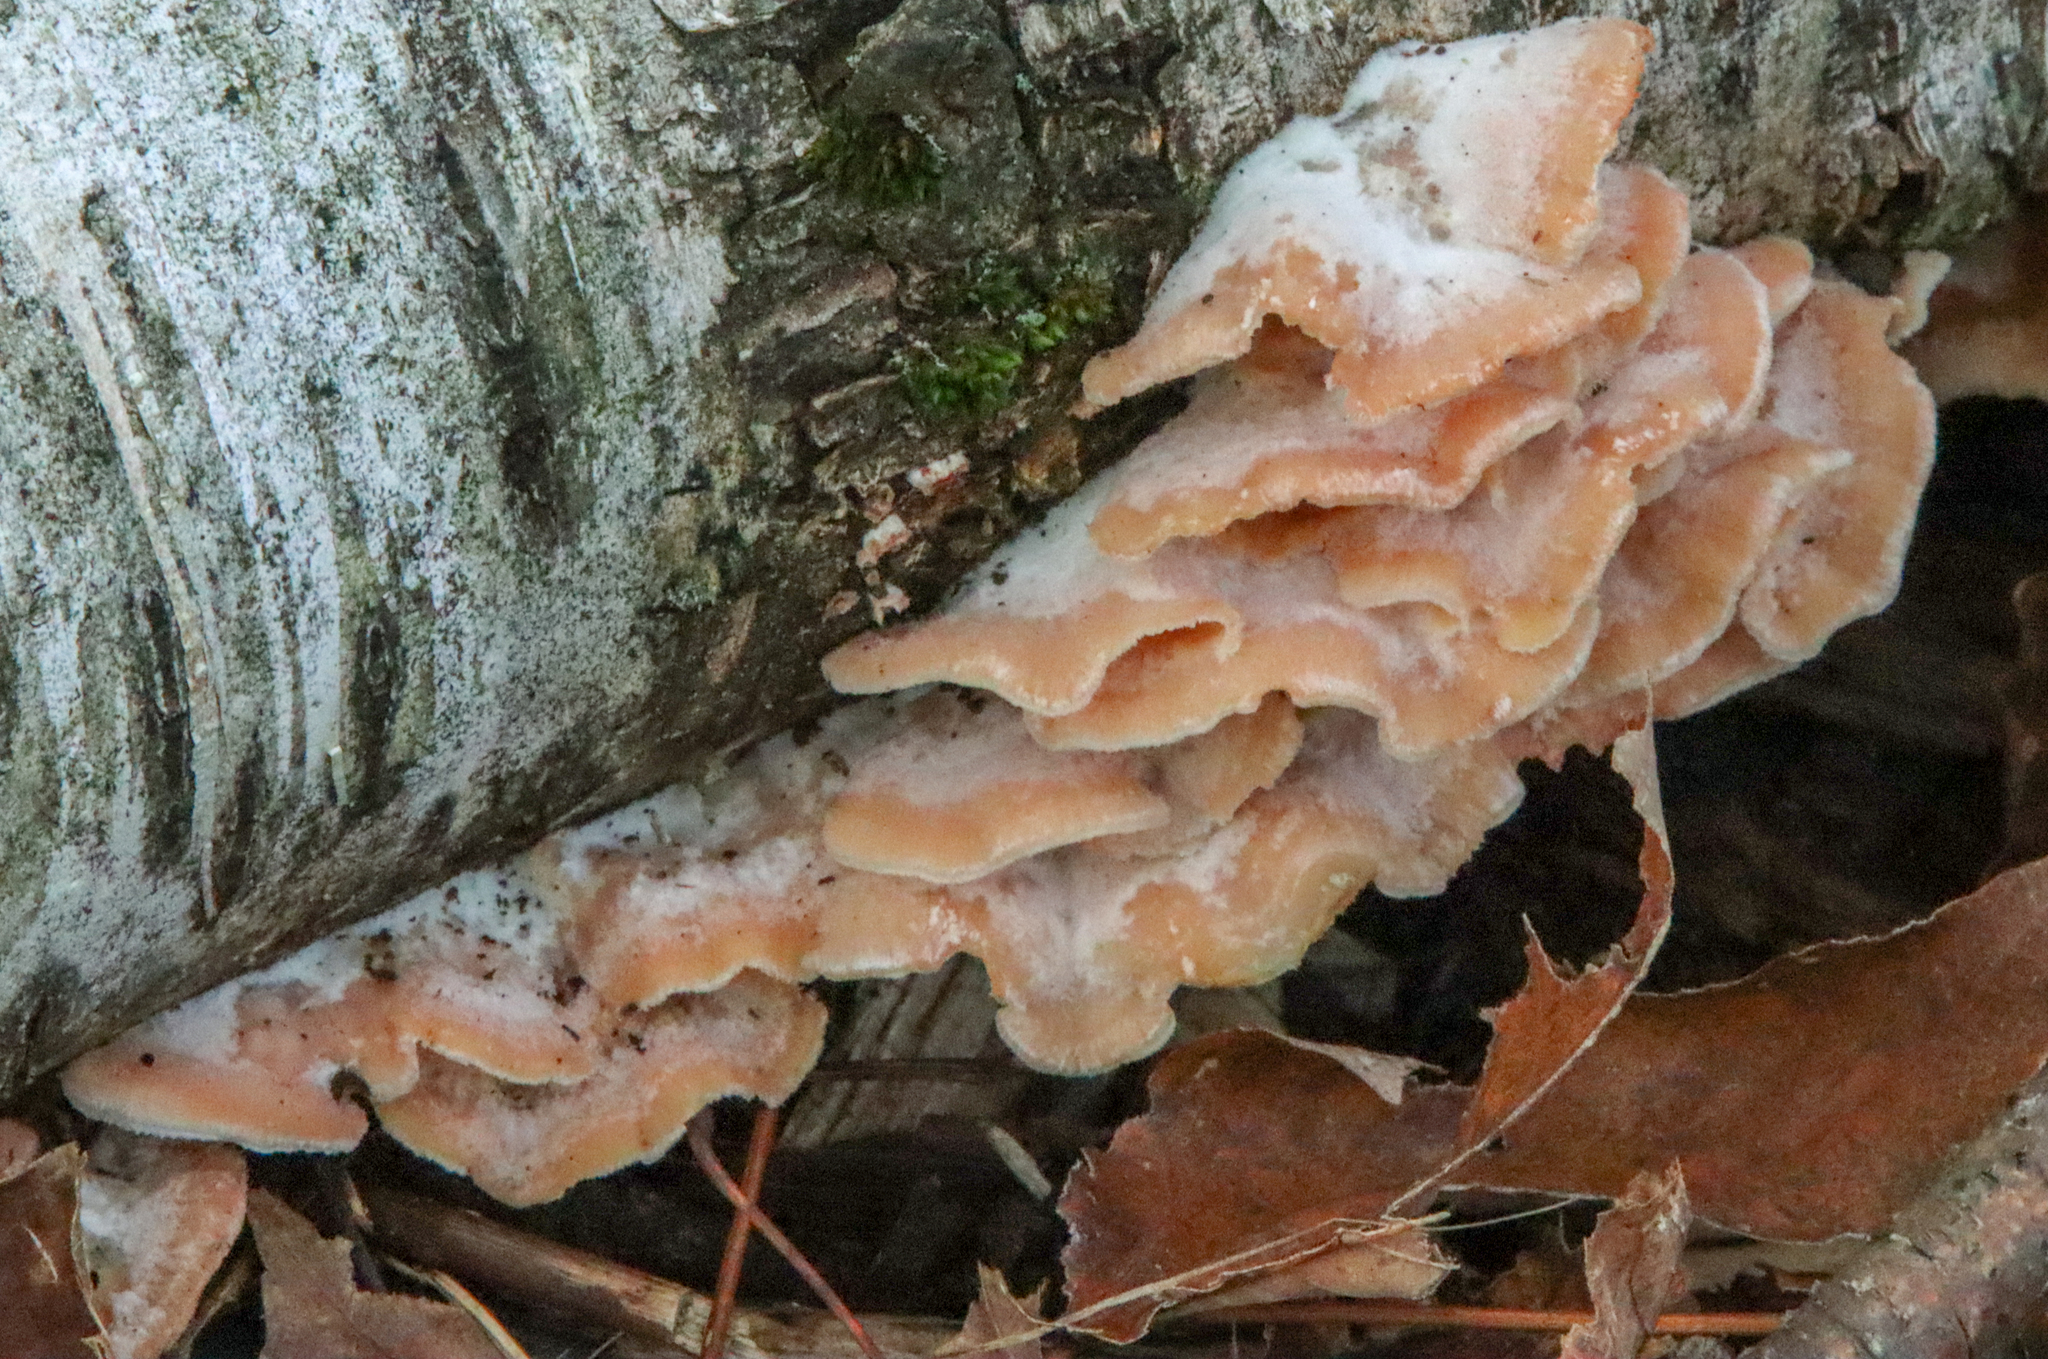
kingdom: Fungi
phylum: Basidiomycota
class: Agaricomycetes
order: Polyporales
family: Meruliaceae
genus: Phlebia
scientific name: Phlebia tremellosa
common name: Jelly rot
